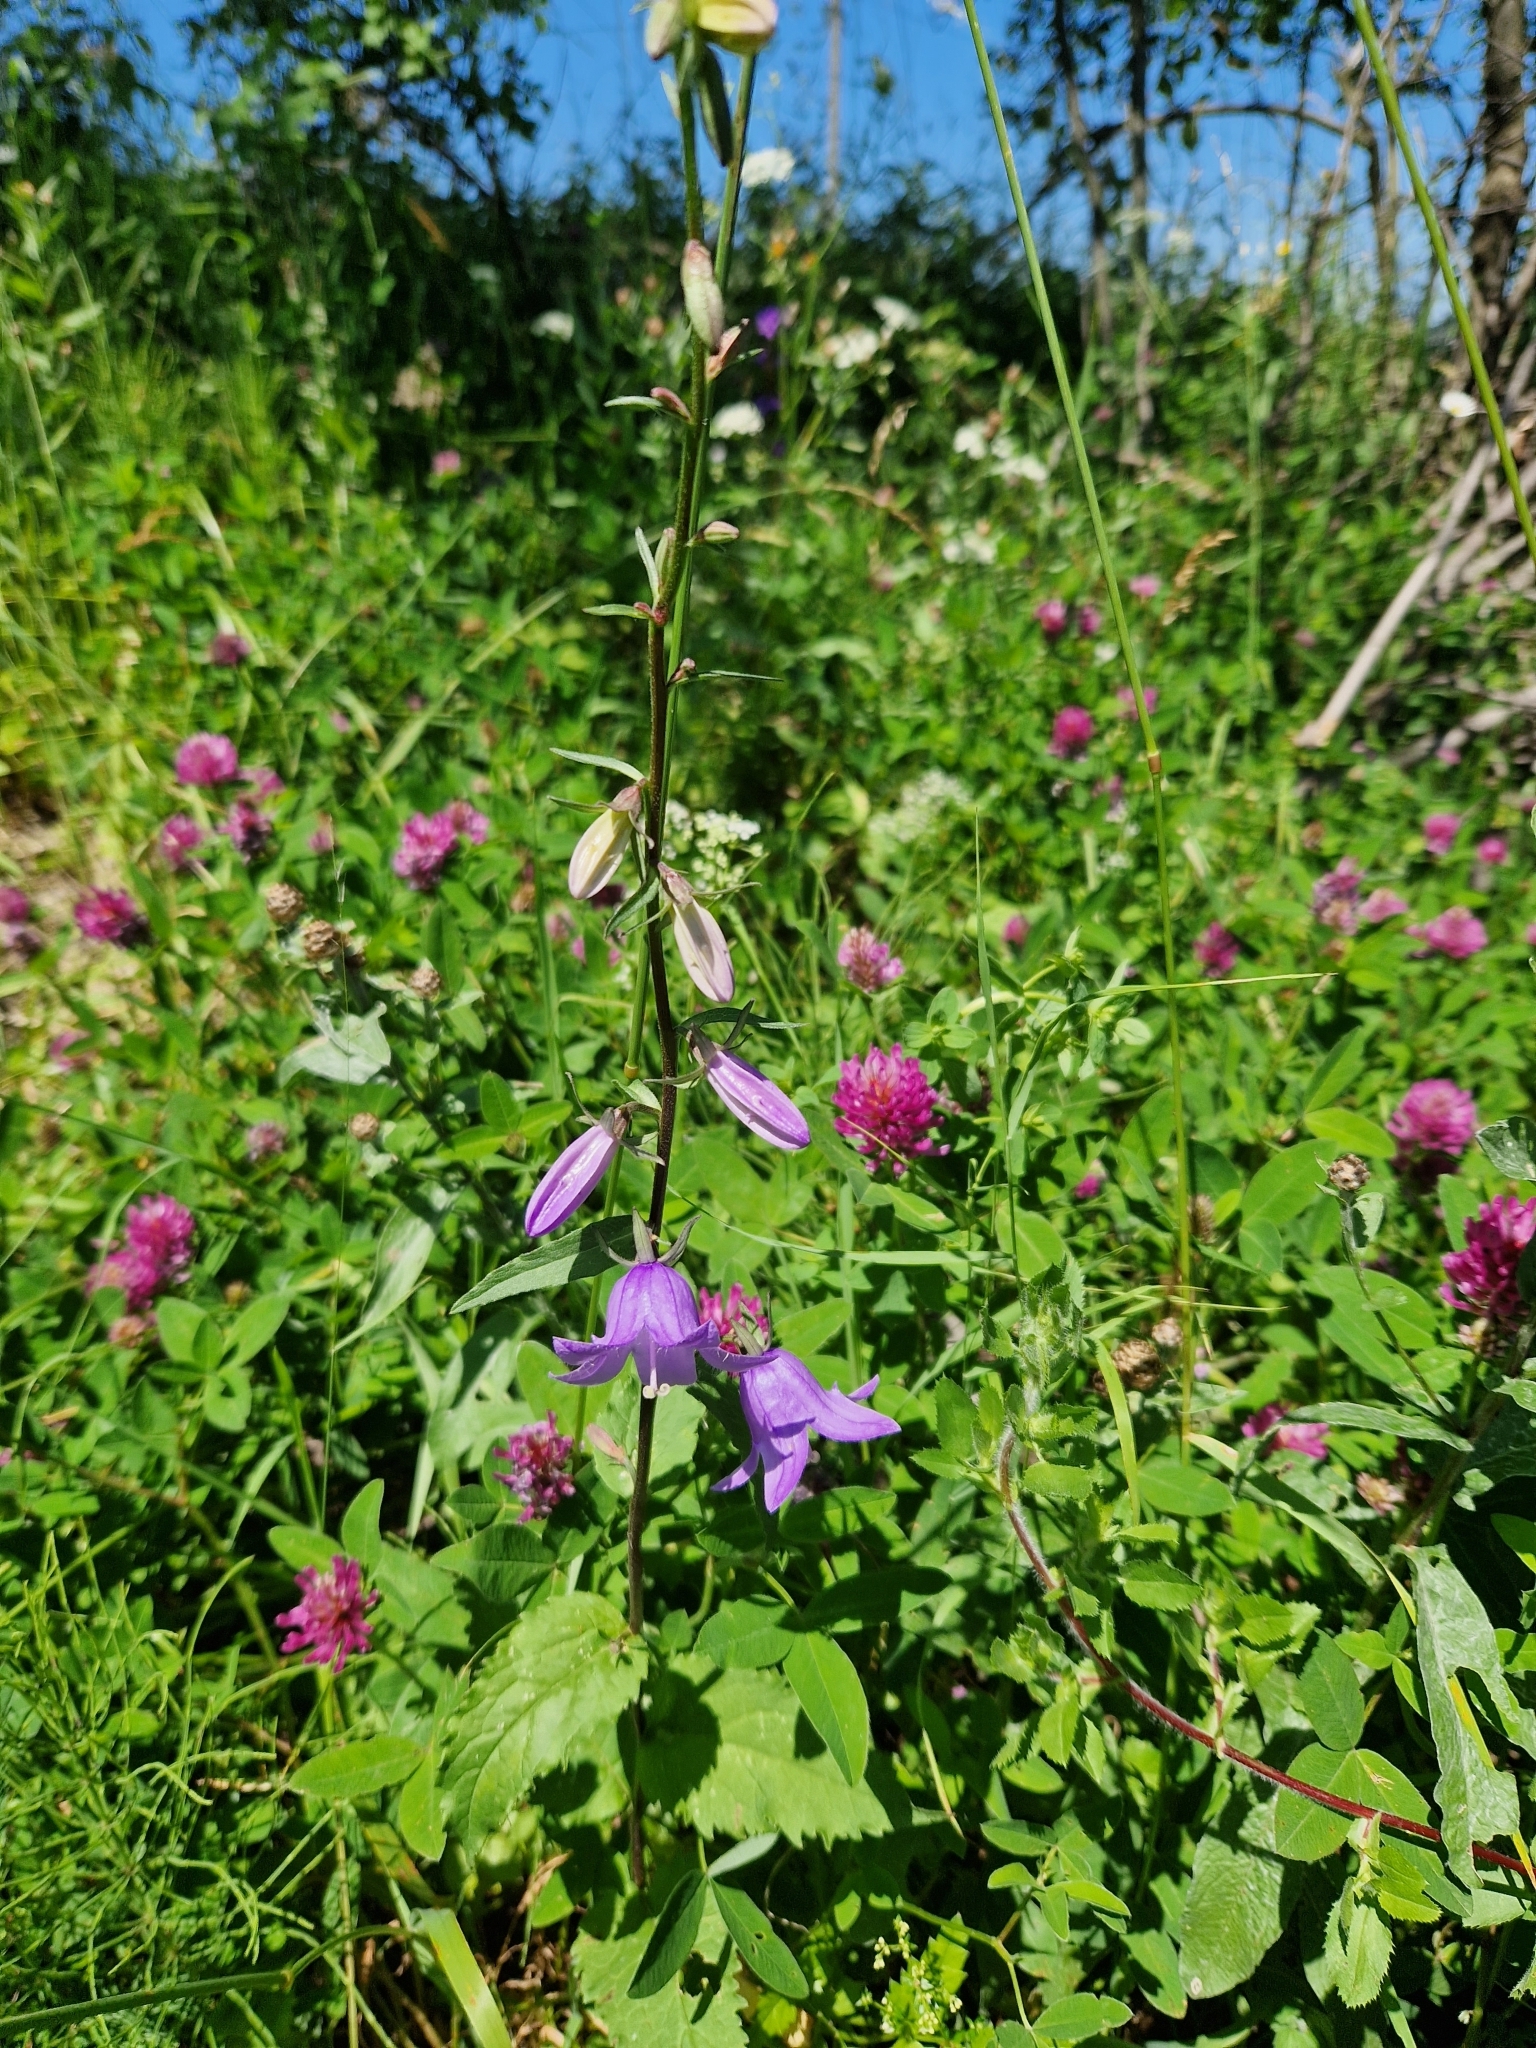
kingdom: Plantae
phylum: Tracheophyta
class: Magnoliopsida
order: Asterales
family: Campanulaceae
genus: Campanula
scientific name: Campanula persicifolia
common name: Peach-leaved bellflower
